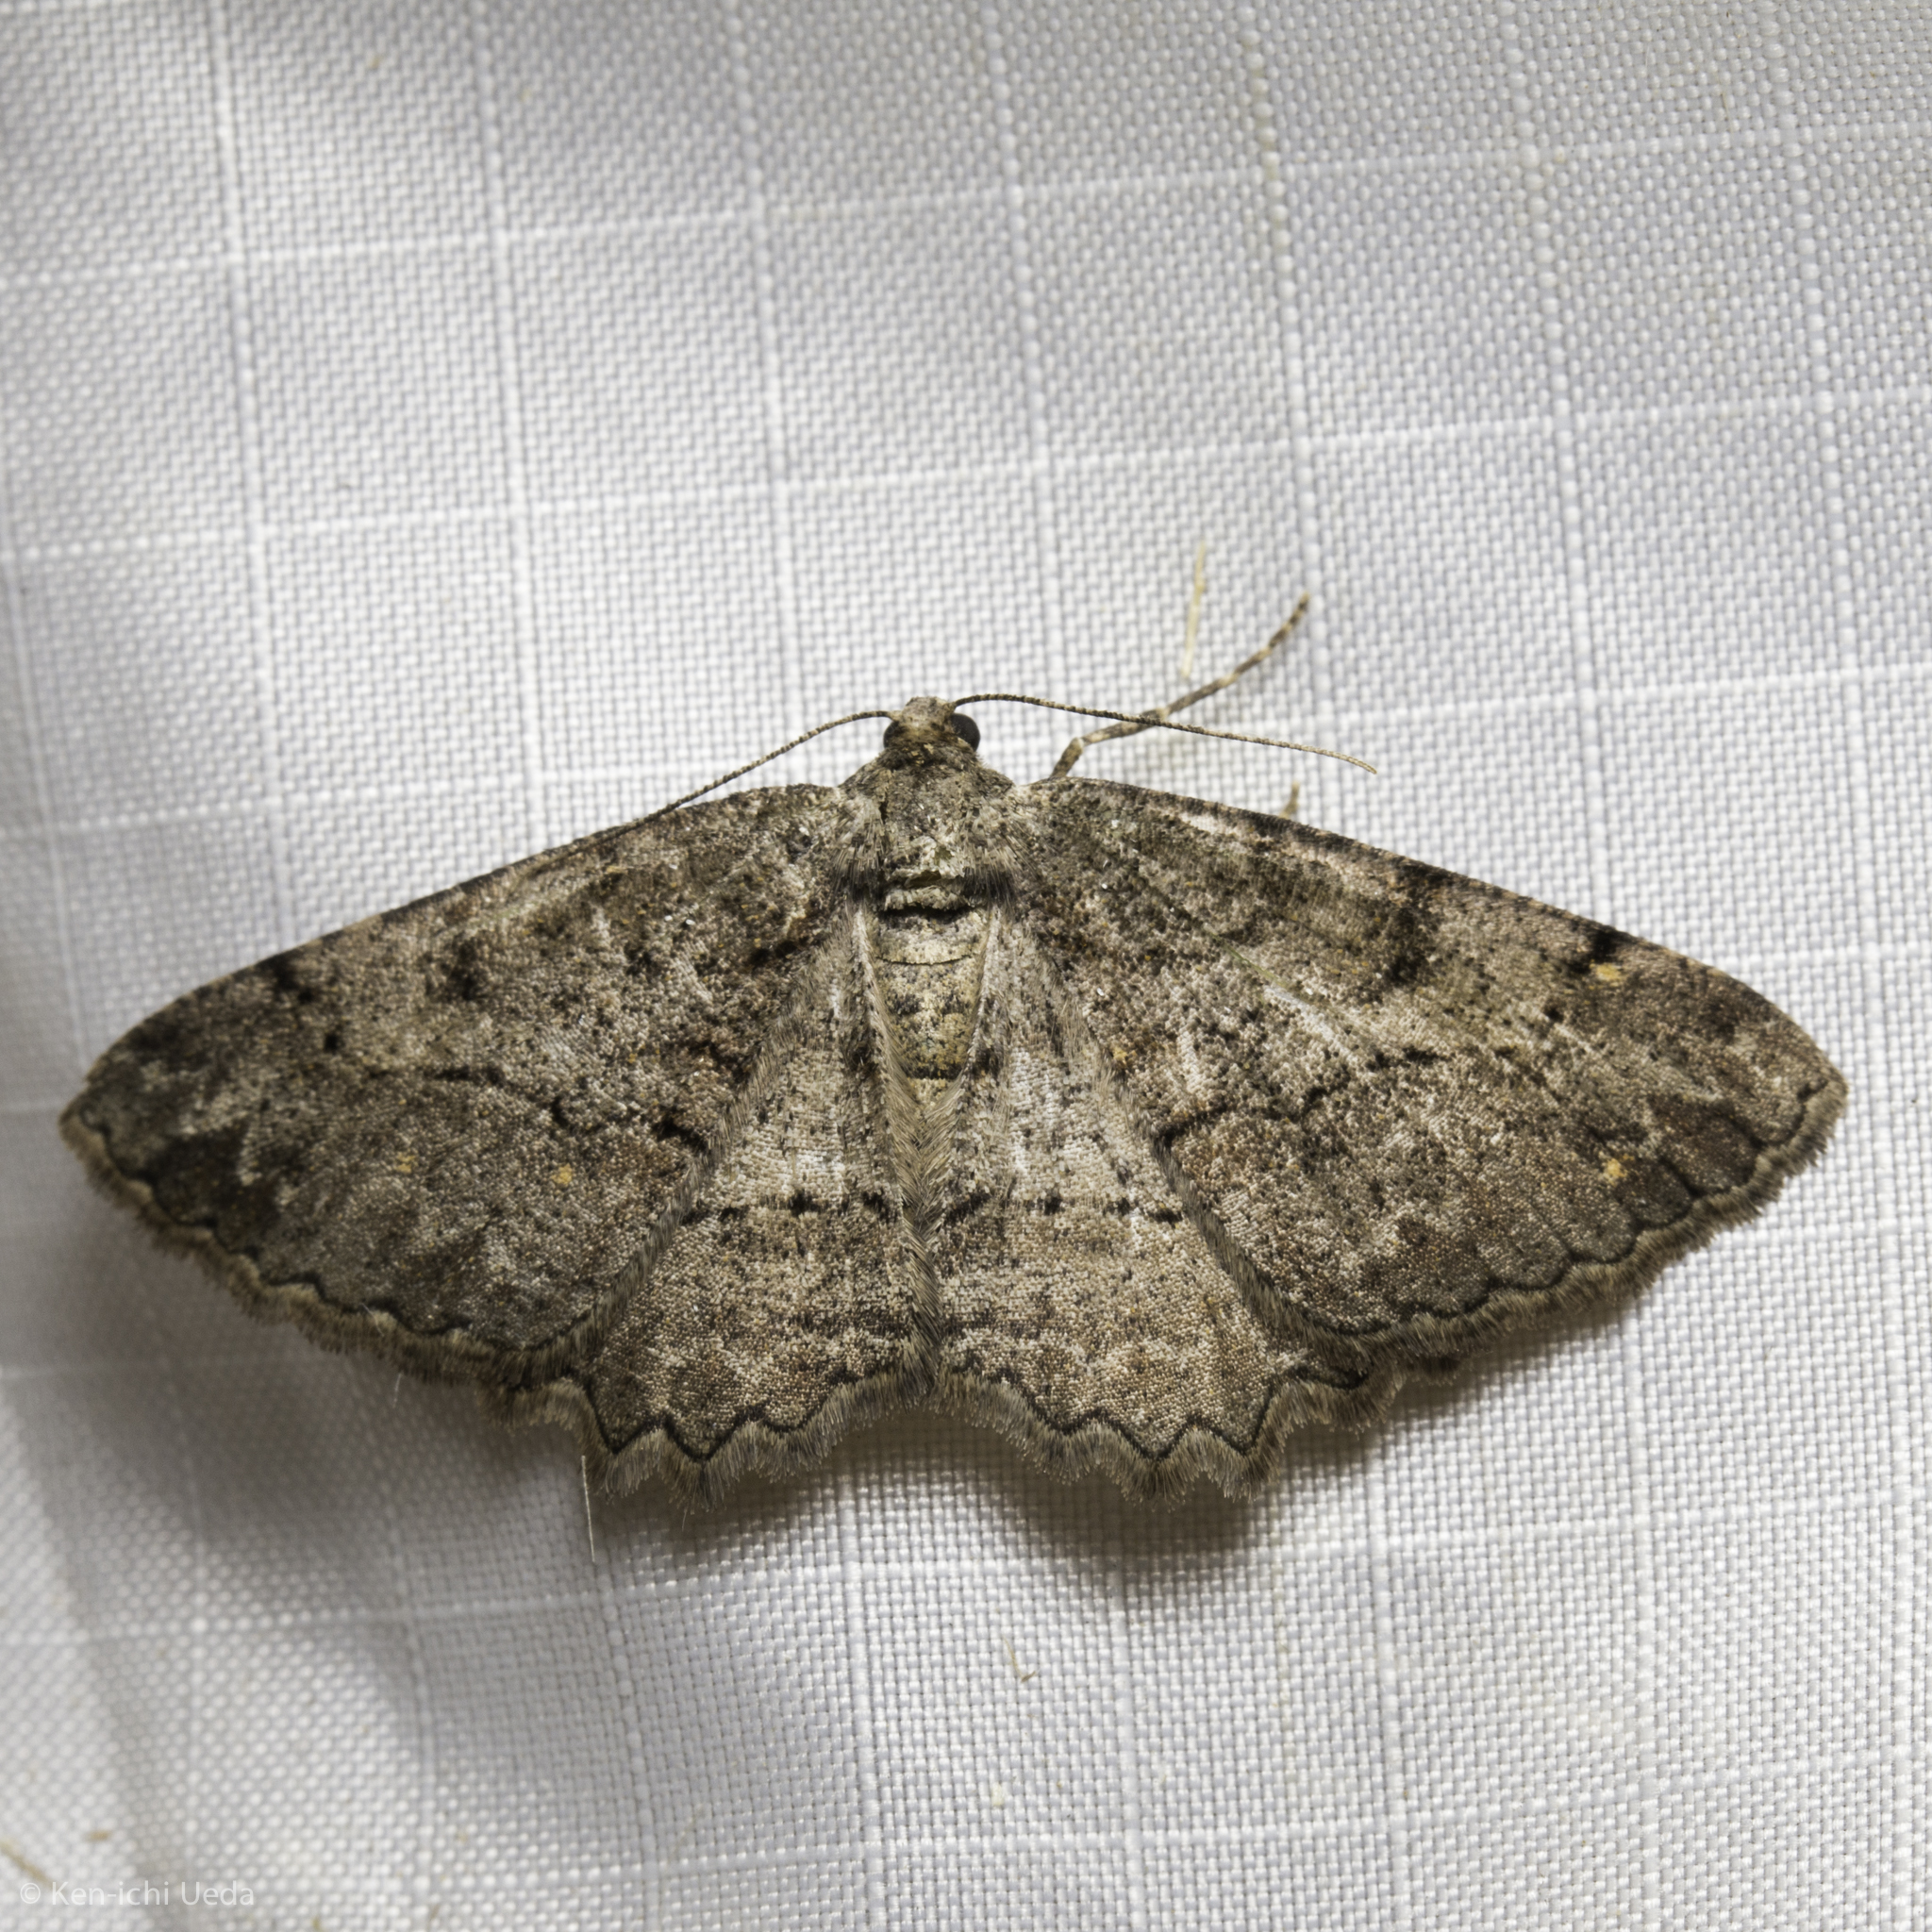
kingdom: Animalia
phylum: Arthropoda
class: Insecta
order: Lepidoptera
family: Geometridae
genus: Neoalcis
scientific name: Neoalcis californiaria
